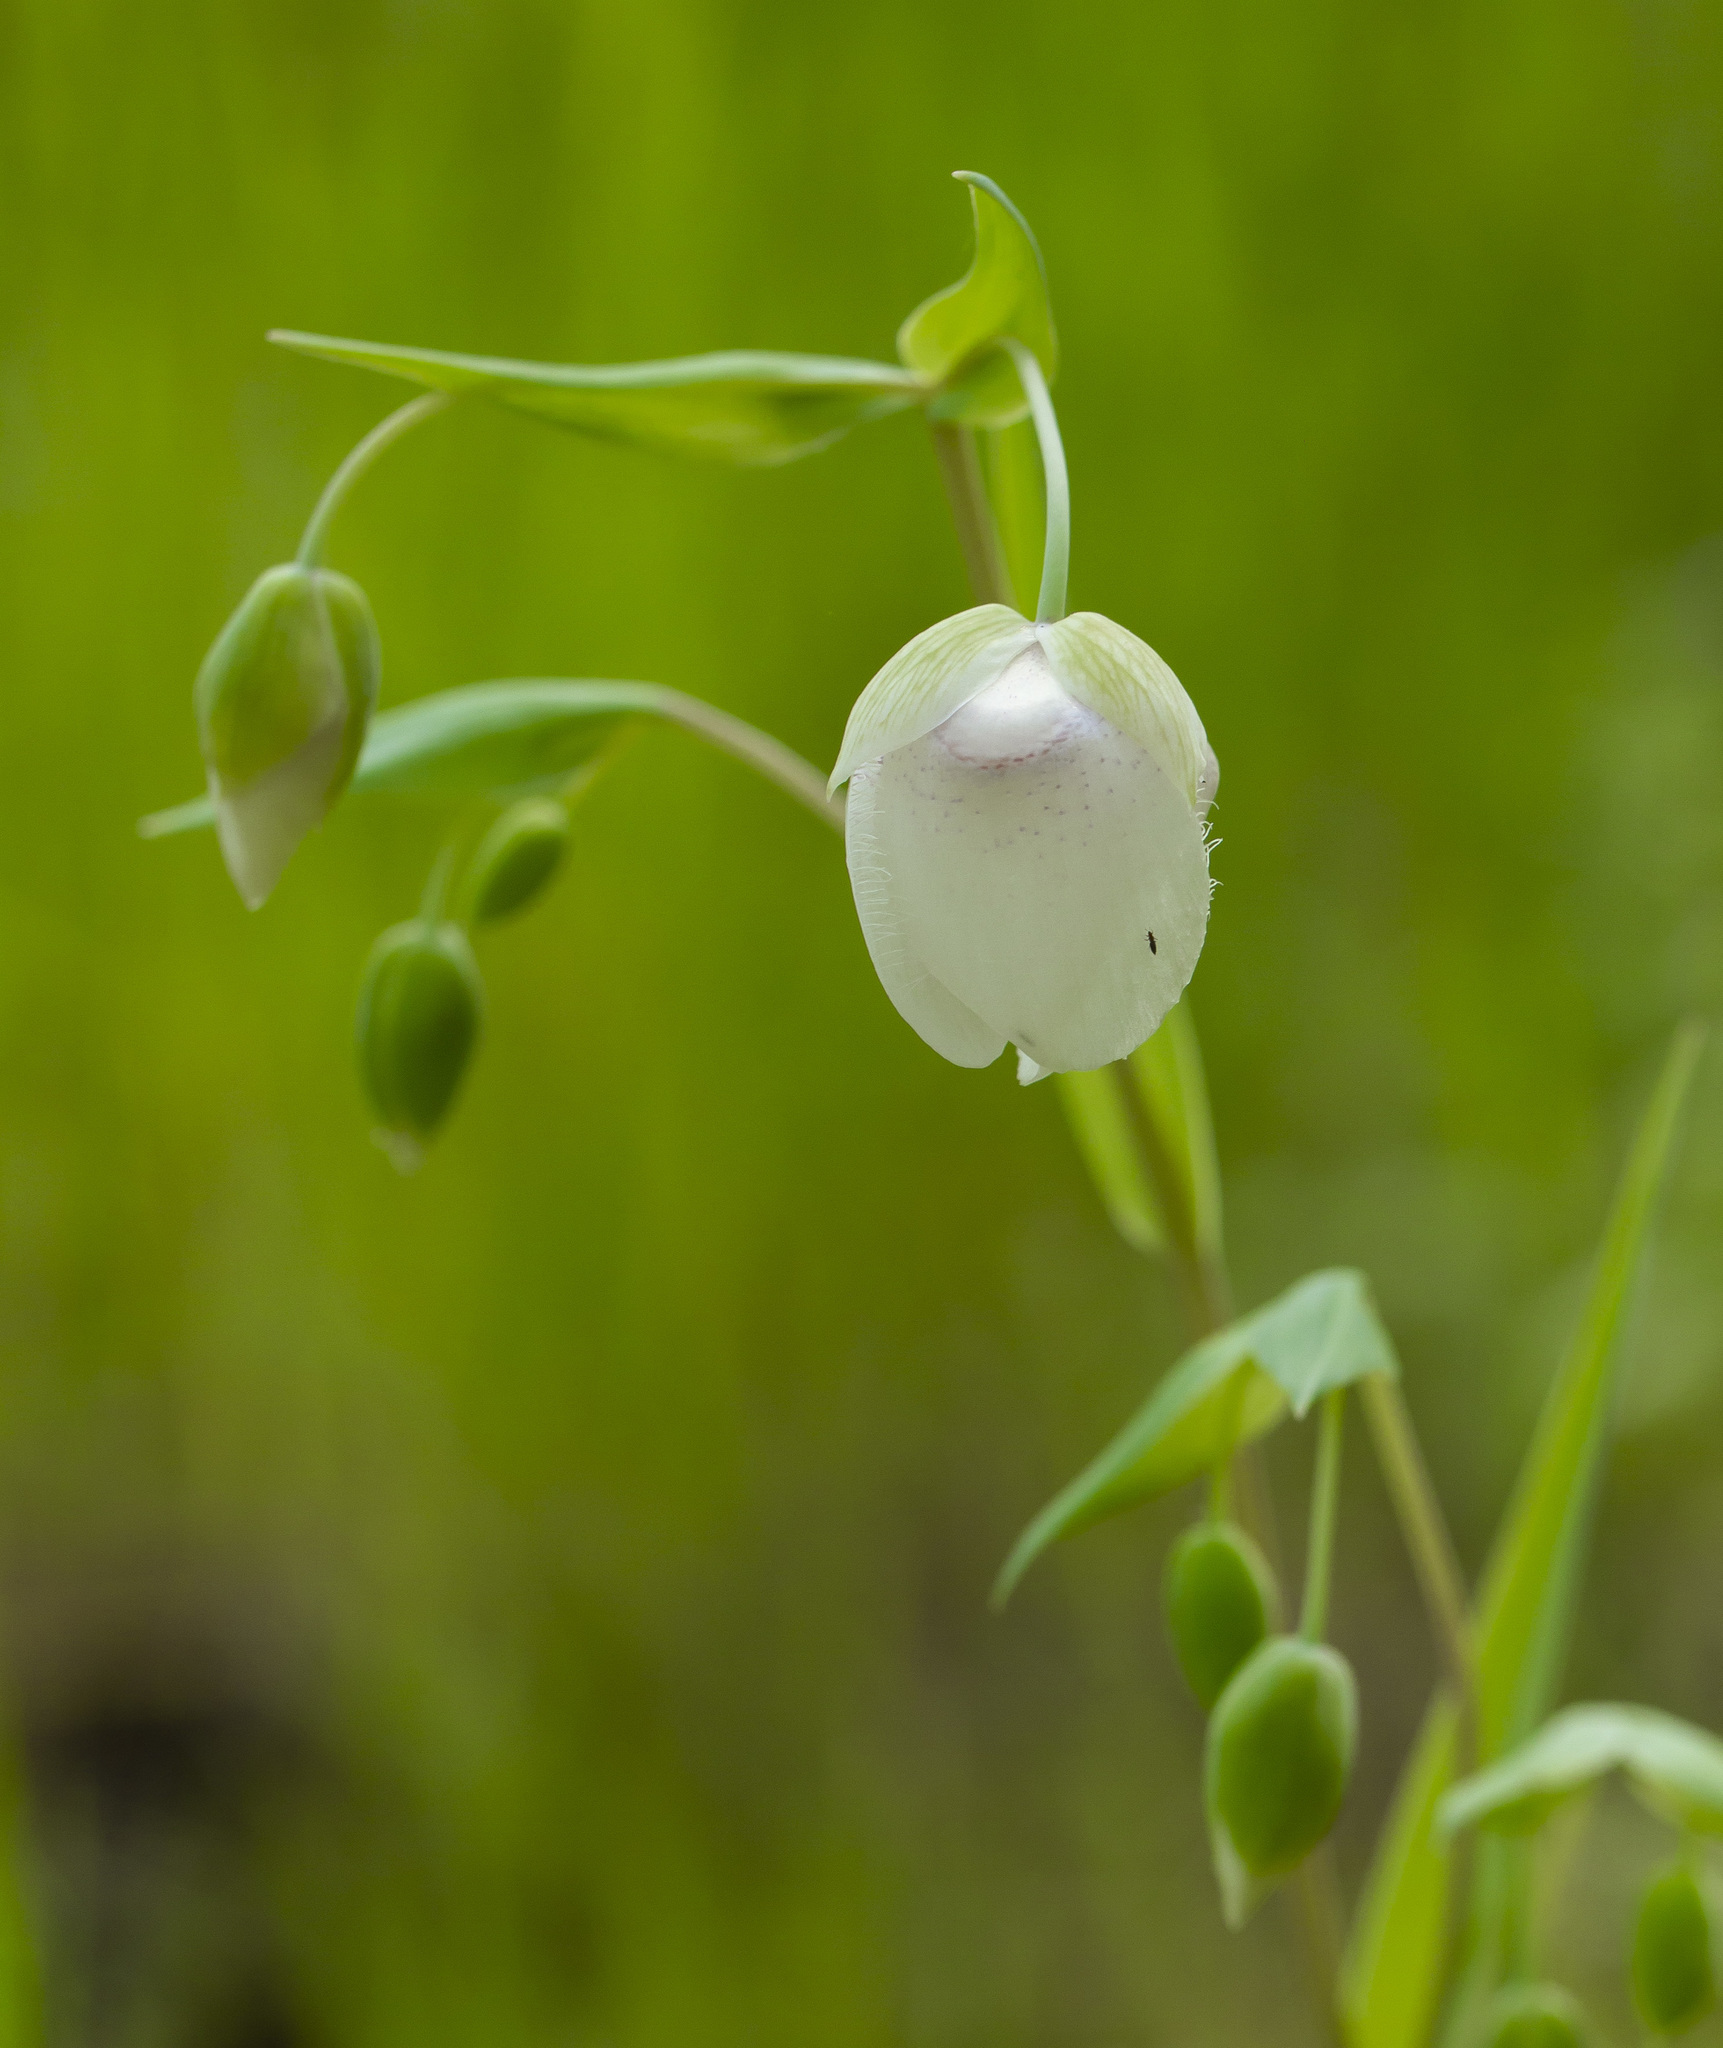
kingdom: Plantae
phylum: Tracheophyta
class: Liliopsida
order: Liliales
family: Liliaceae
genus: Calochortus
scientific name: Calochortus albus
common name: Fairy-lantern
